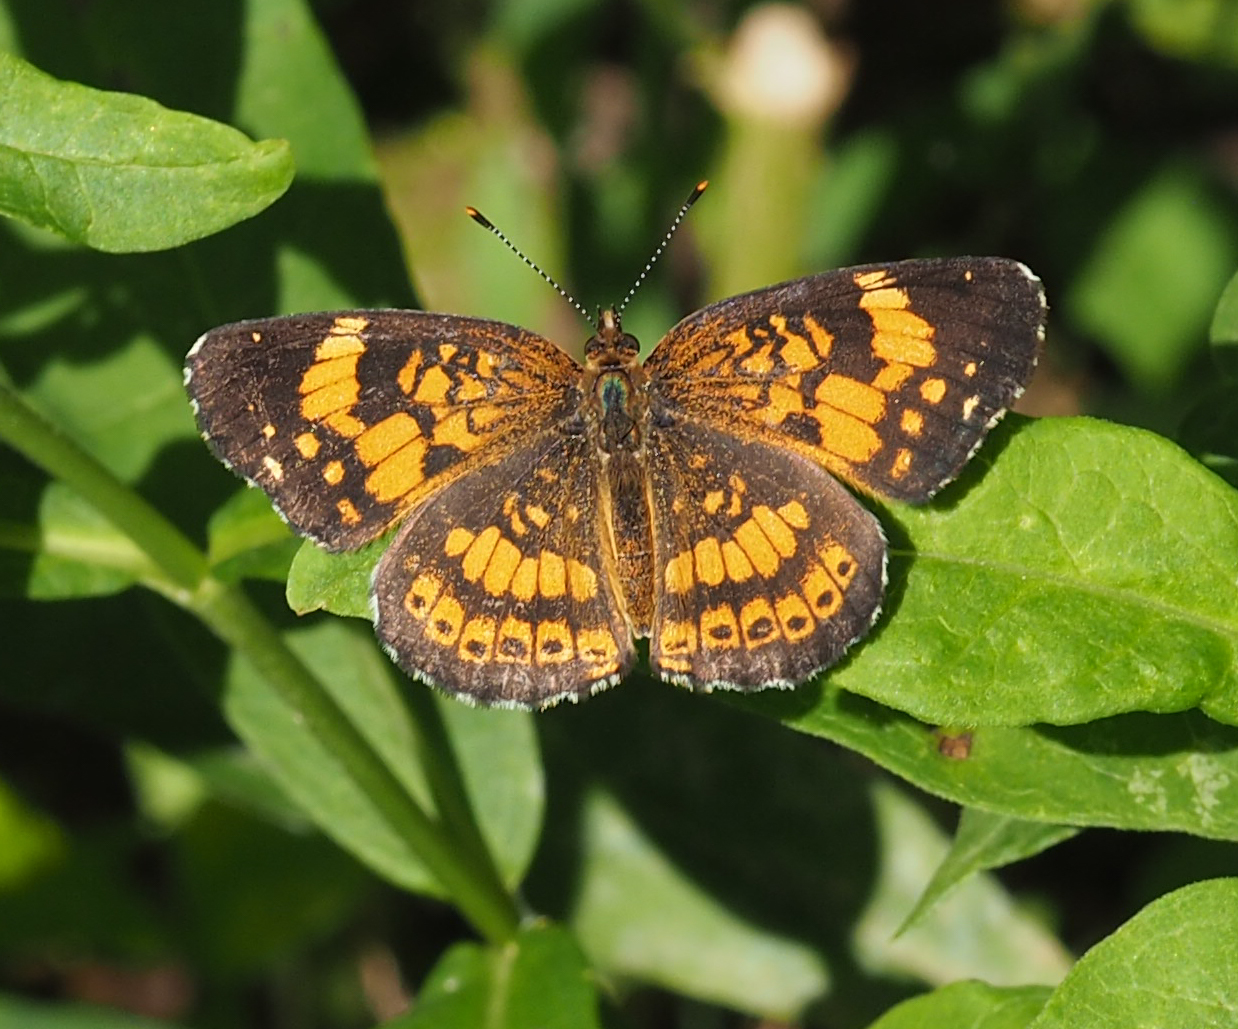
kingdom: Animalia
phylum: Arthropoda
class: Insecta
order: Lepidoptera
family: Nymphalidae
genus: Chlosyne
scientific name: Chlosyne nycteis
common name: Silvery checkerspot
